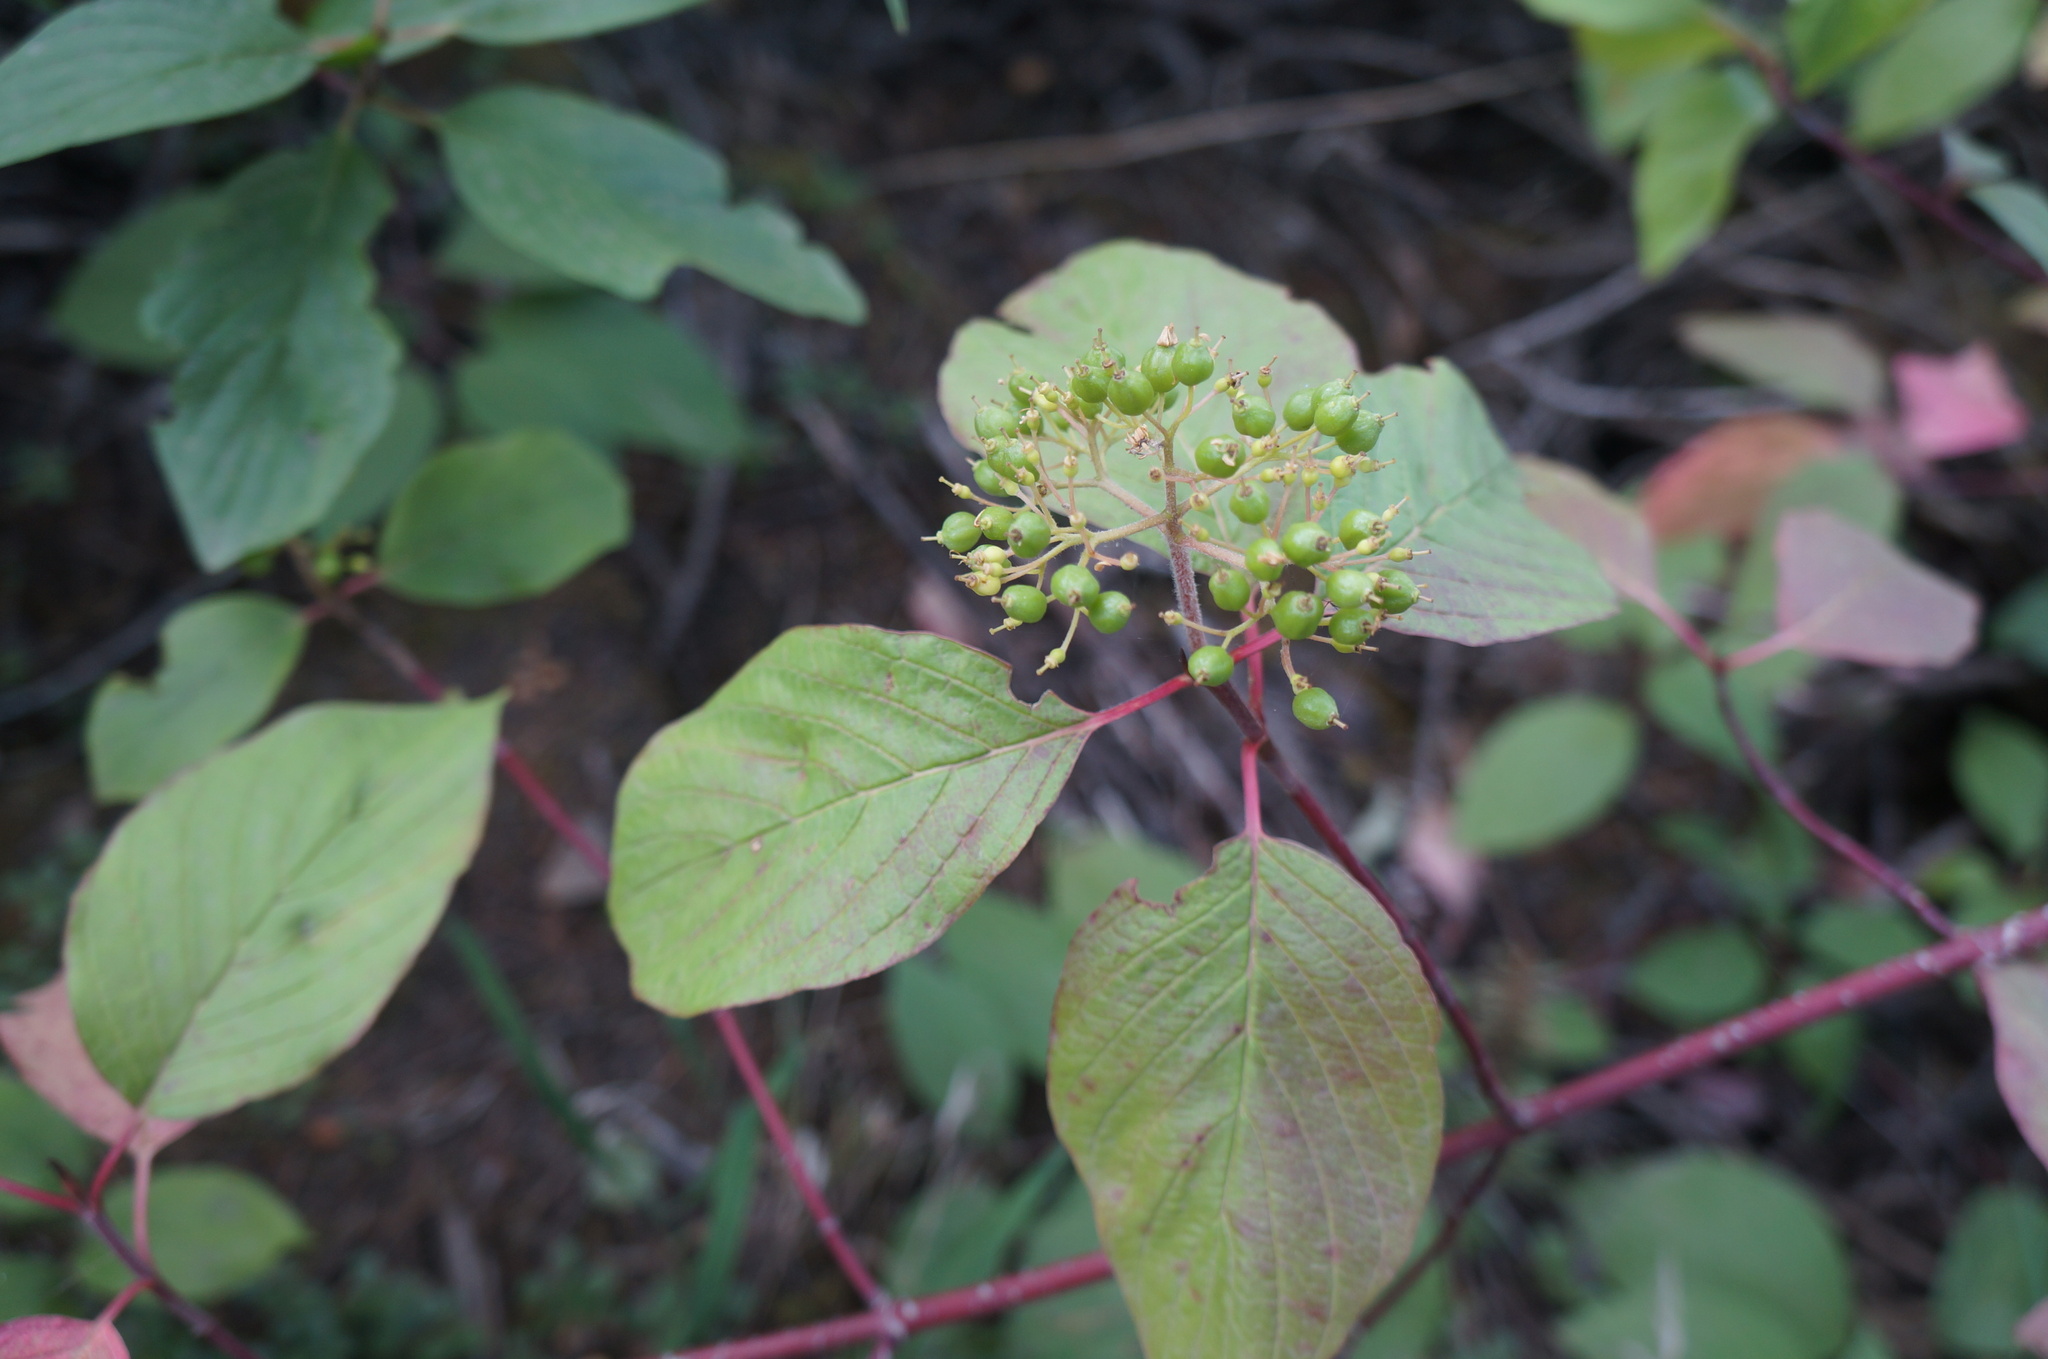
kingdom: Plantae
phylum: Tracheophyta
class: Magnoliopsida
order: Cornales
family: Cornaceae
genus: Cornus
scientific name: Cornus sericea
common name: Red-osier dogwood
